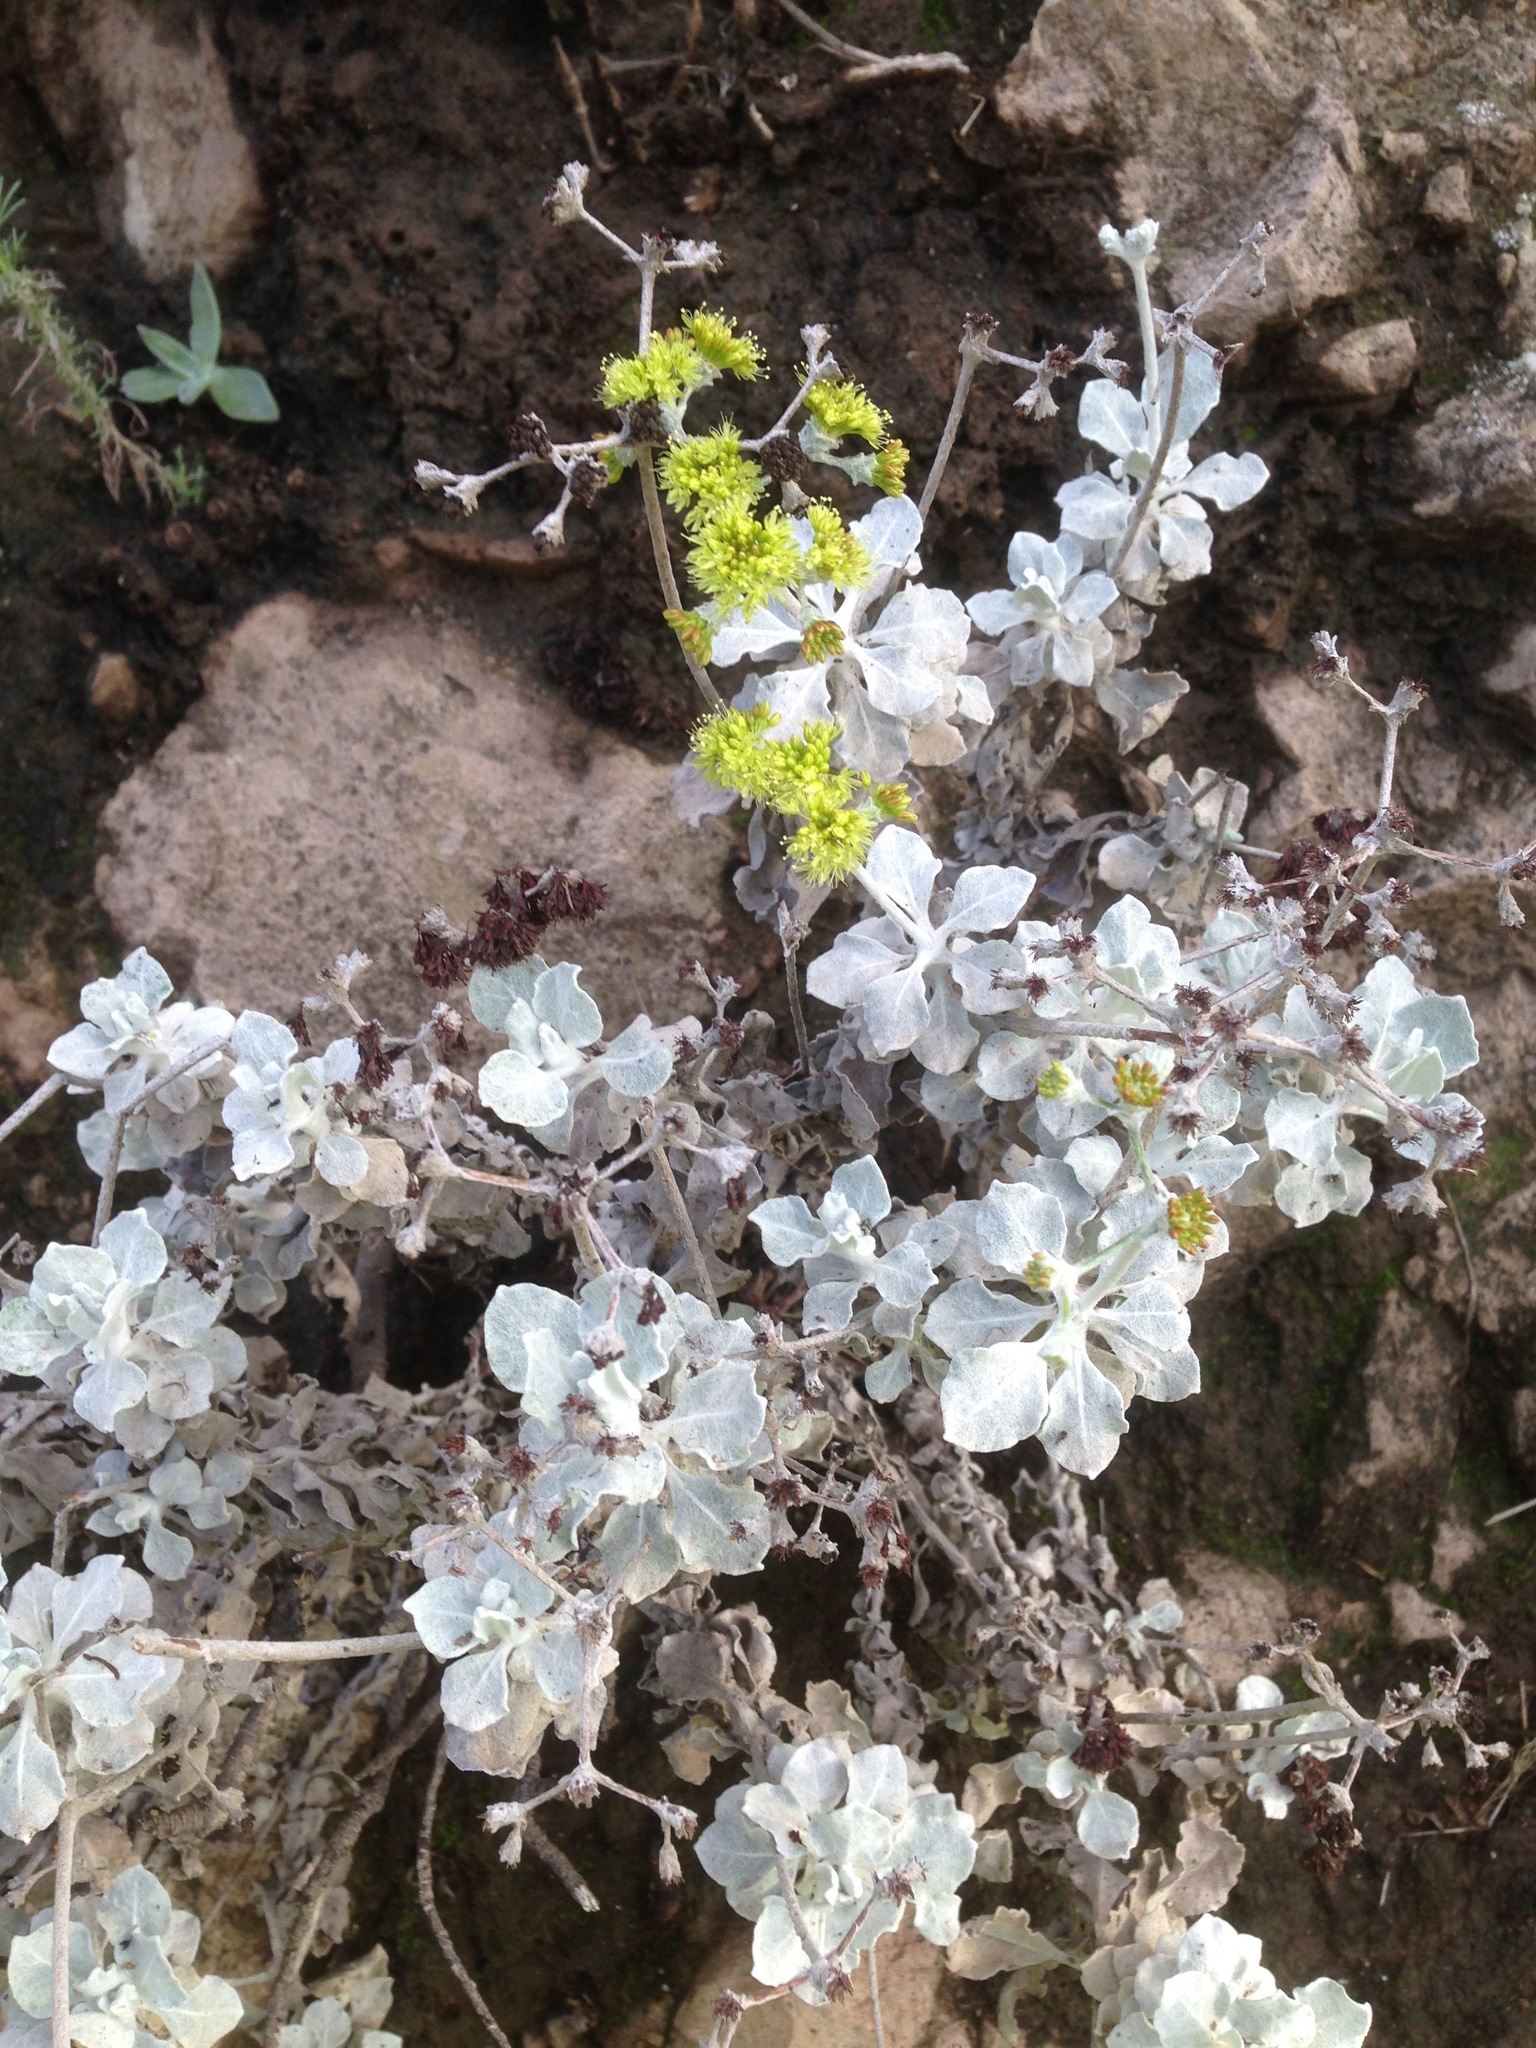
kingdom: Plantae
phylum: Tracheophyta
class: Magnoliopsida
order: Caryophyllales
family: Polygonaceae
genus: Eriogonum
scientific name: Eriogonum crocatum
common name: Saffron wild buckwheat
